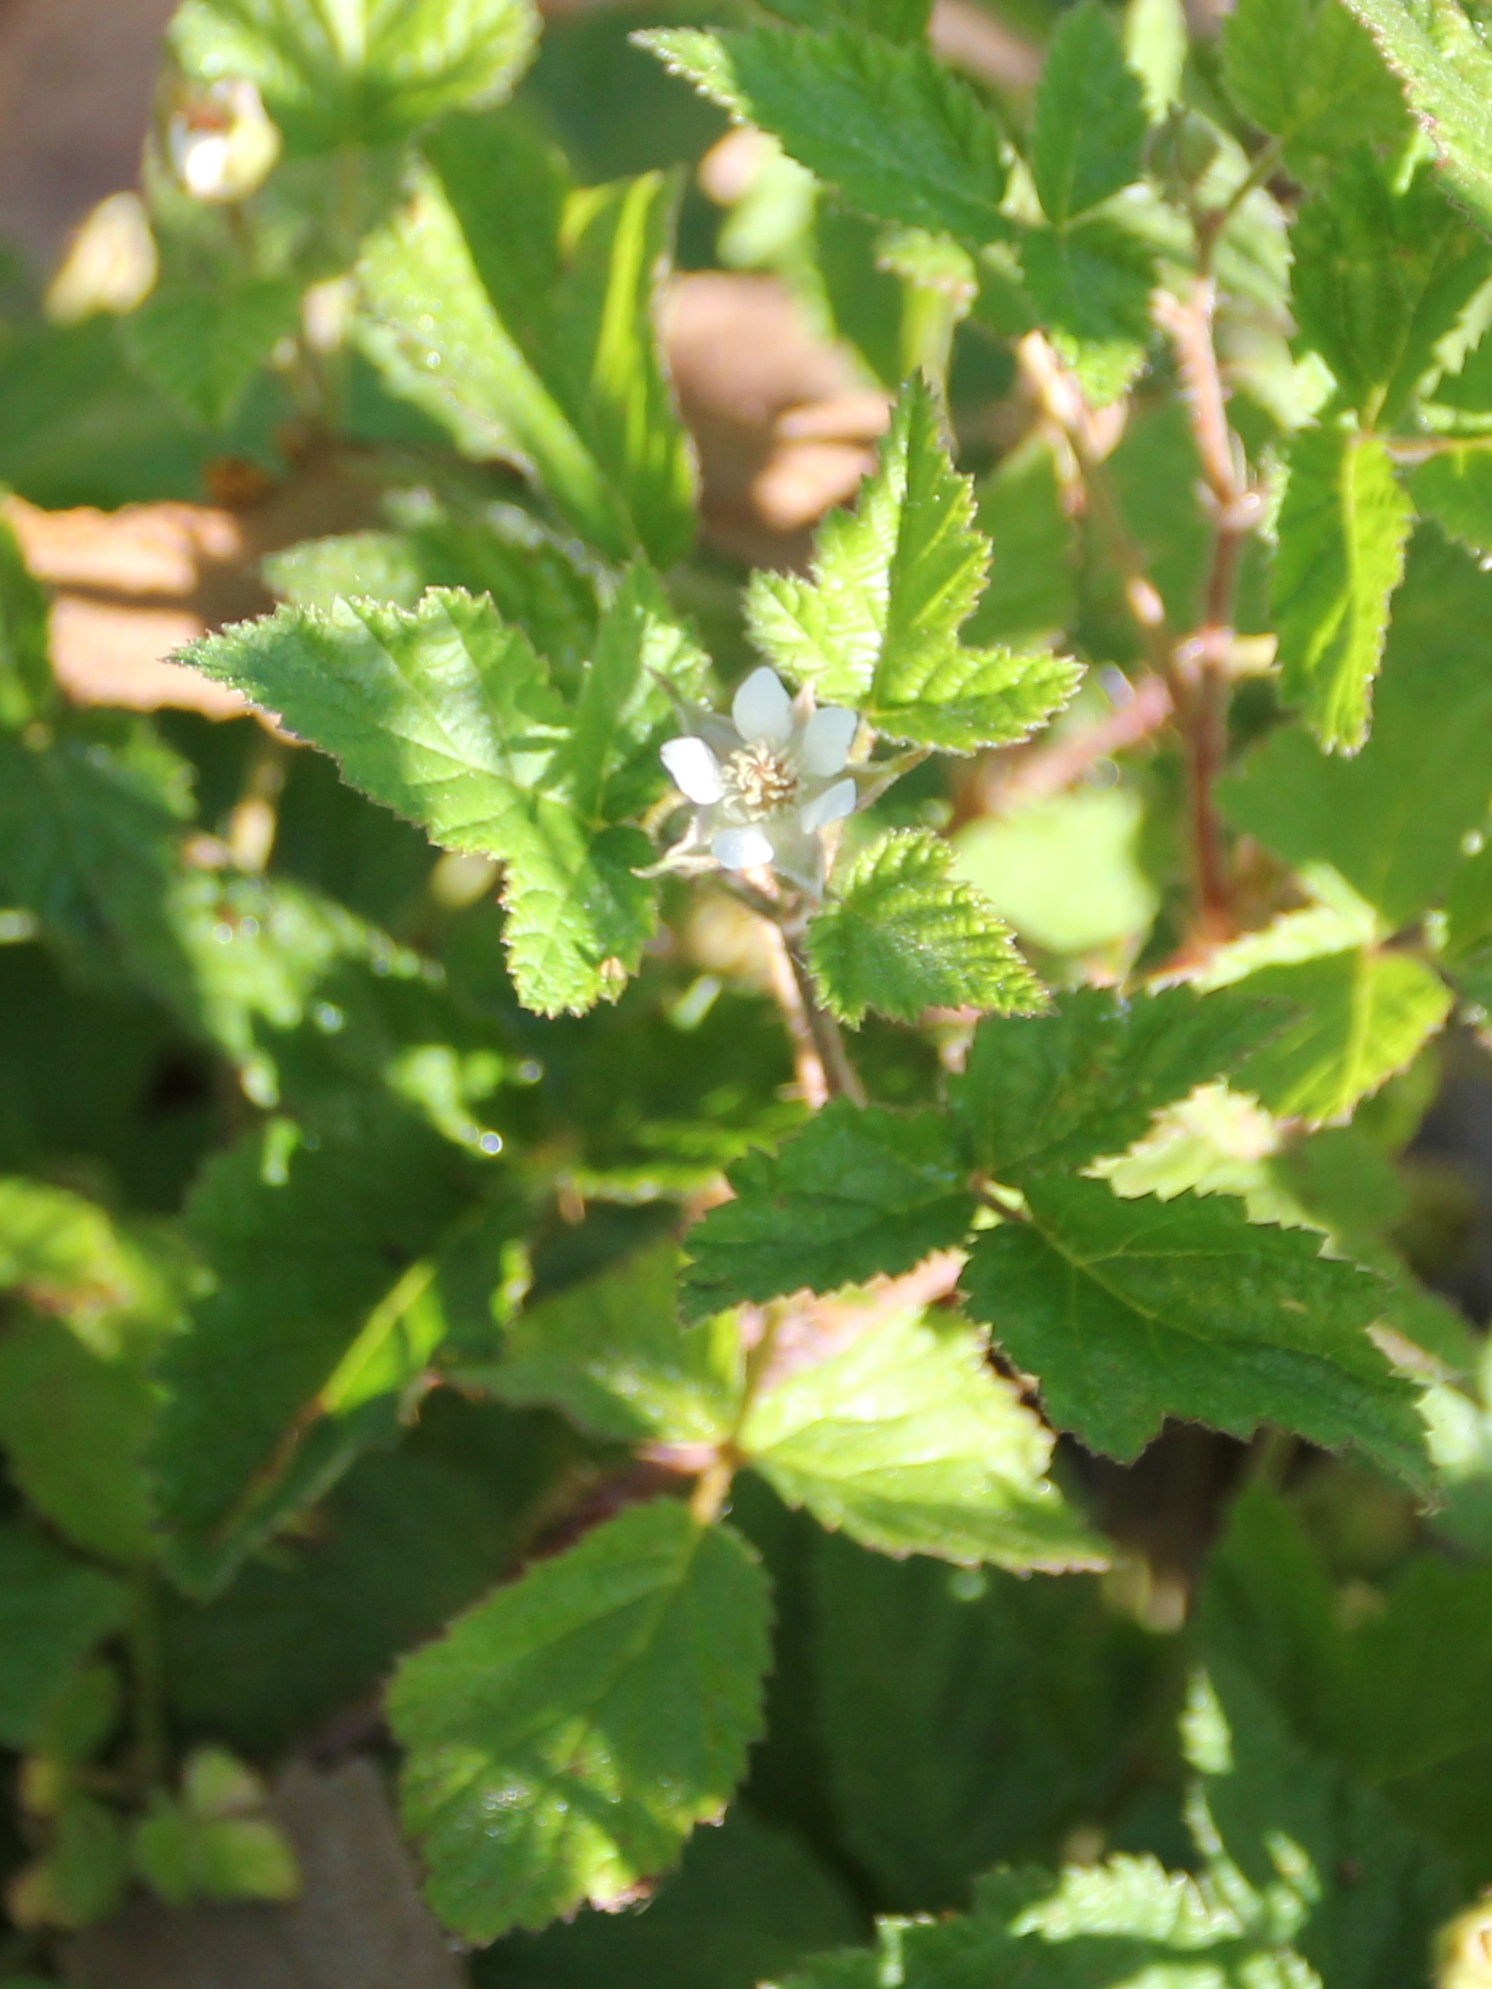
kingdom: Plantae
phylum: Tracheophyta
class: Magnoliopsida
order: Rosales
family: Rosaceae
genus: Rubus
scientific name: Rubus ursinus
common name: Pacific blackberry
